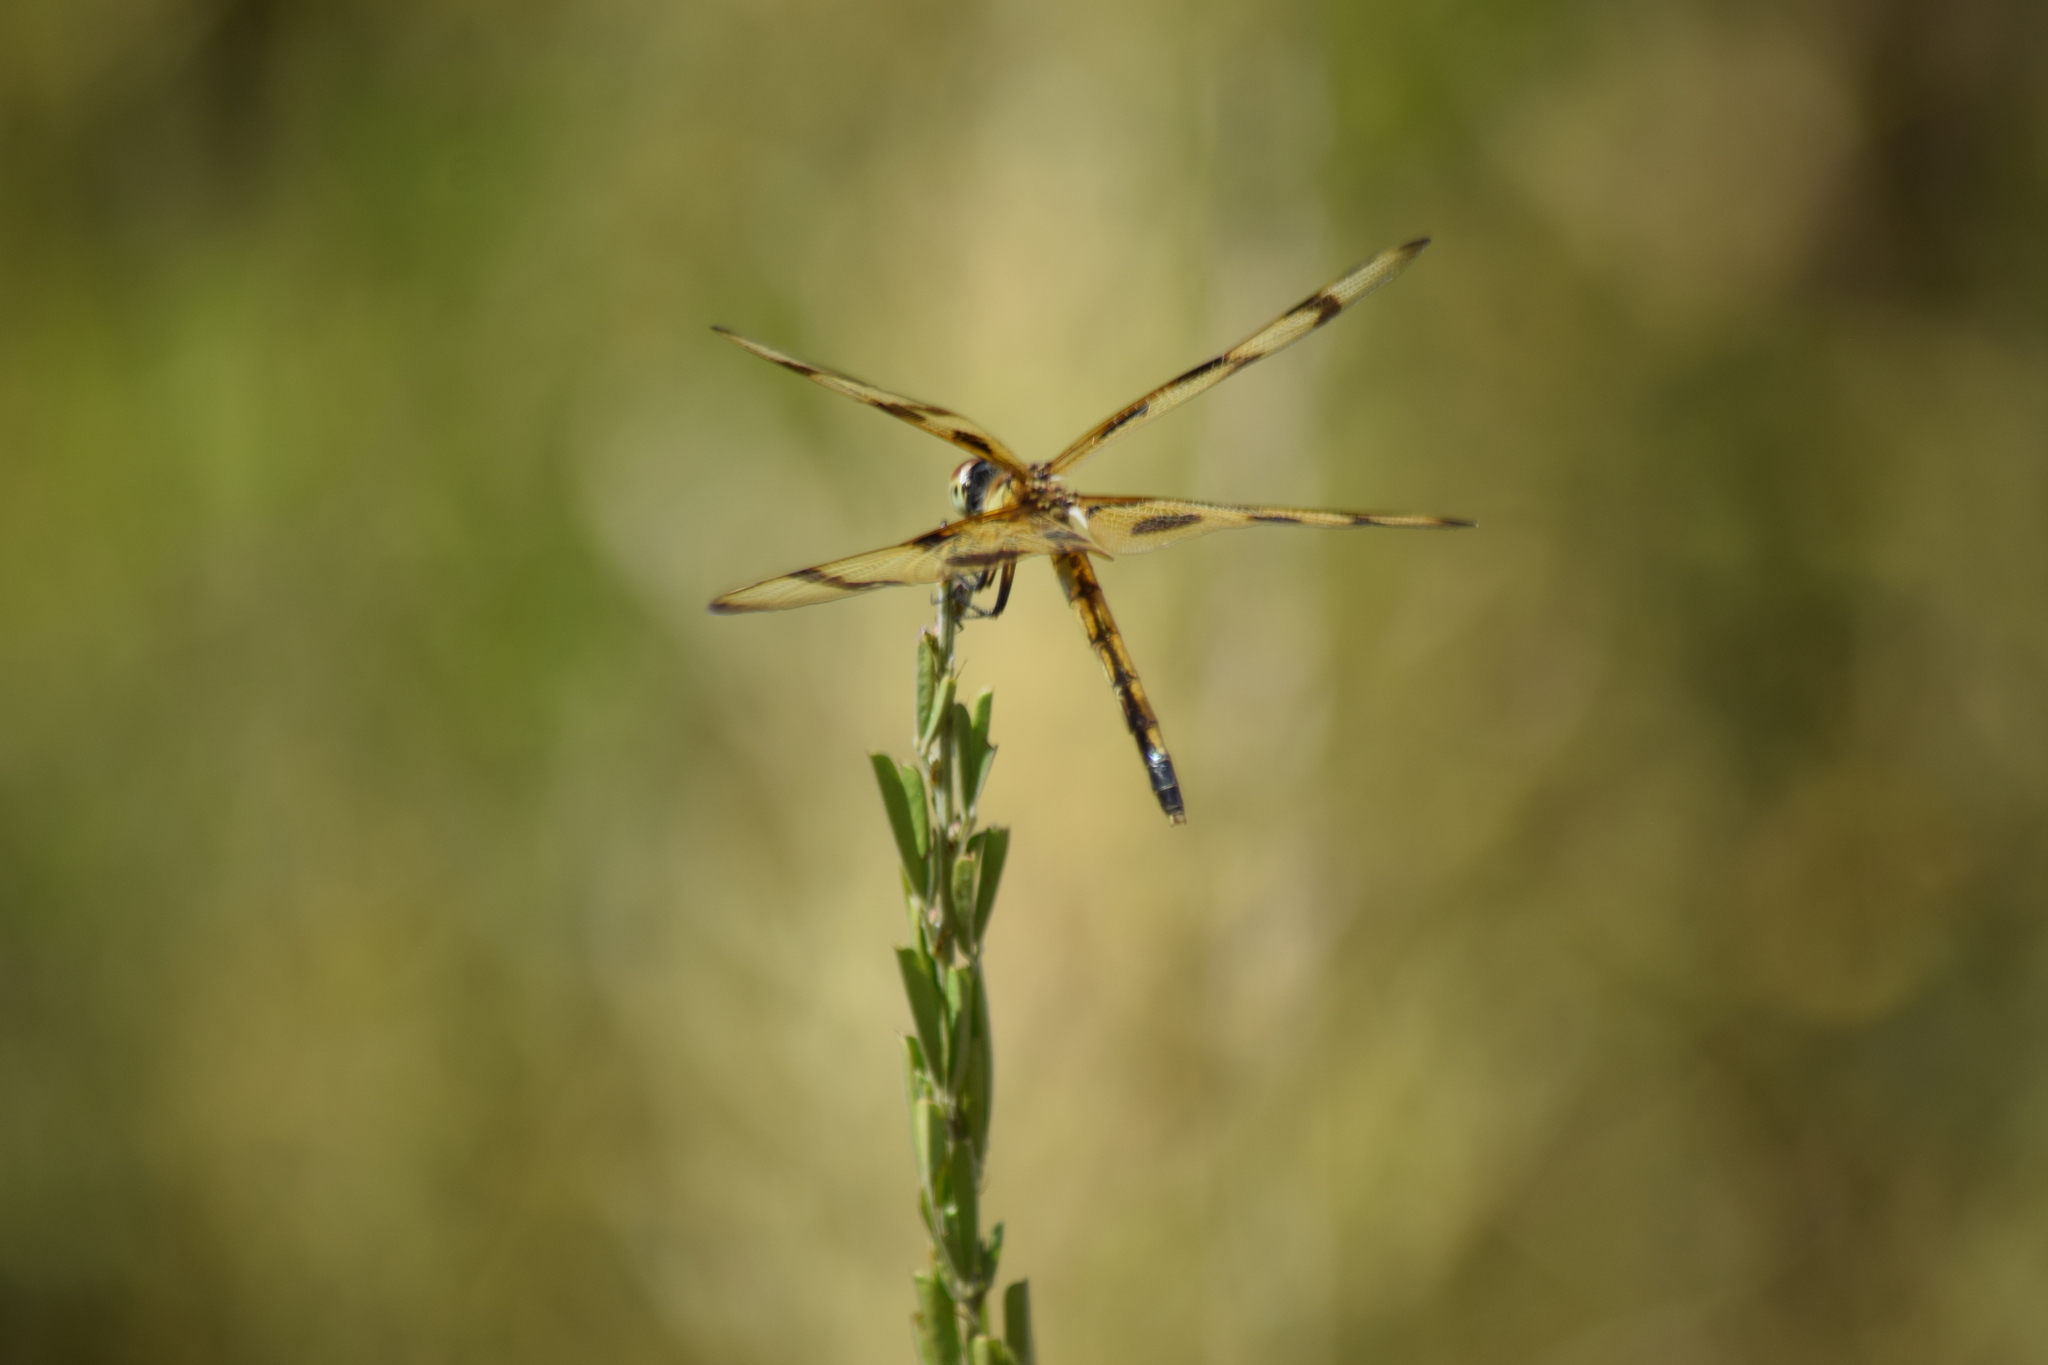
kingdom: Animalia
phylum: Arthropoda
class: Insecta
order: Odonata
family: Libellulidae
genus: Celithemis
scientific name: Celithemis eponina
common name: Halloween pennant
